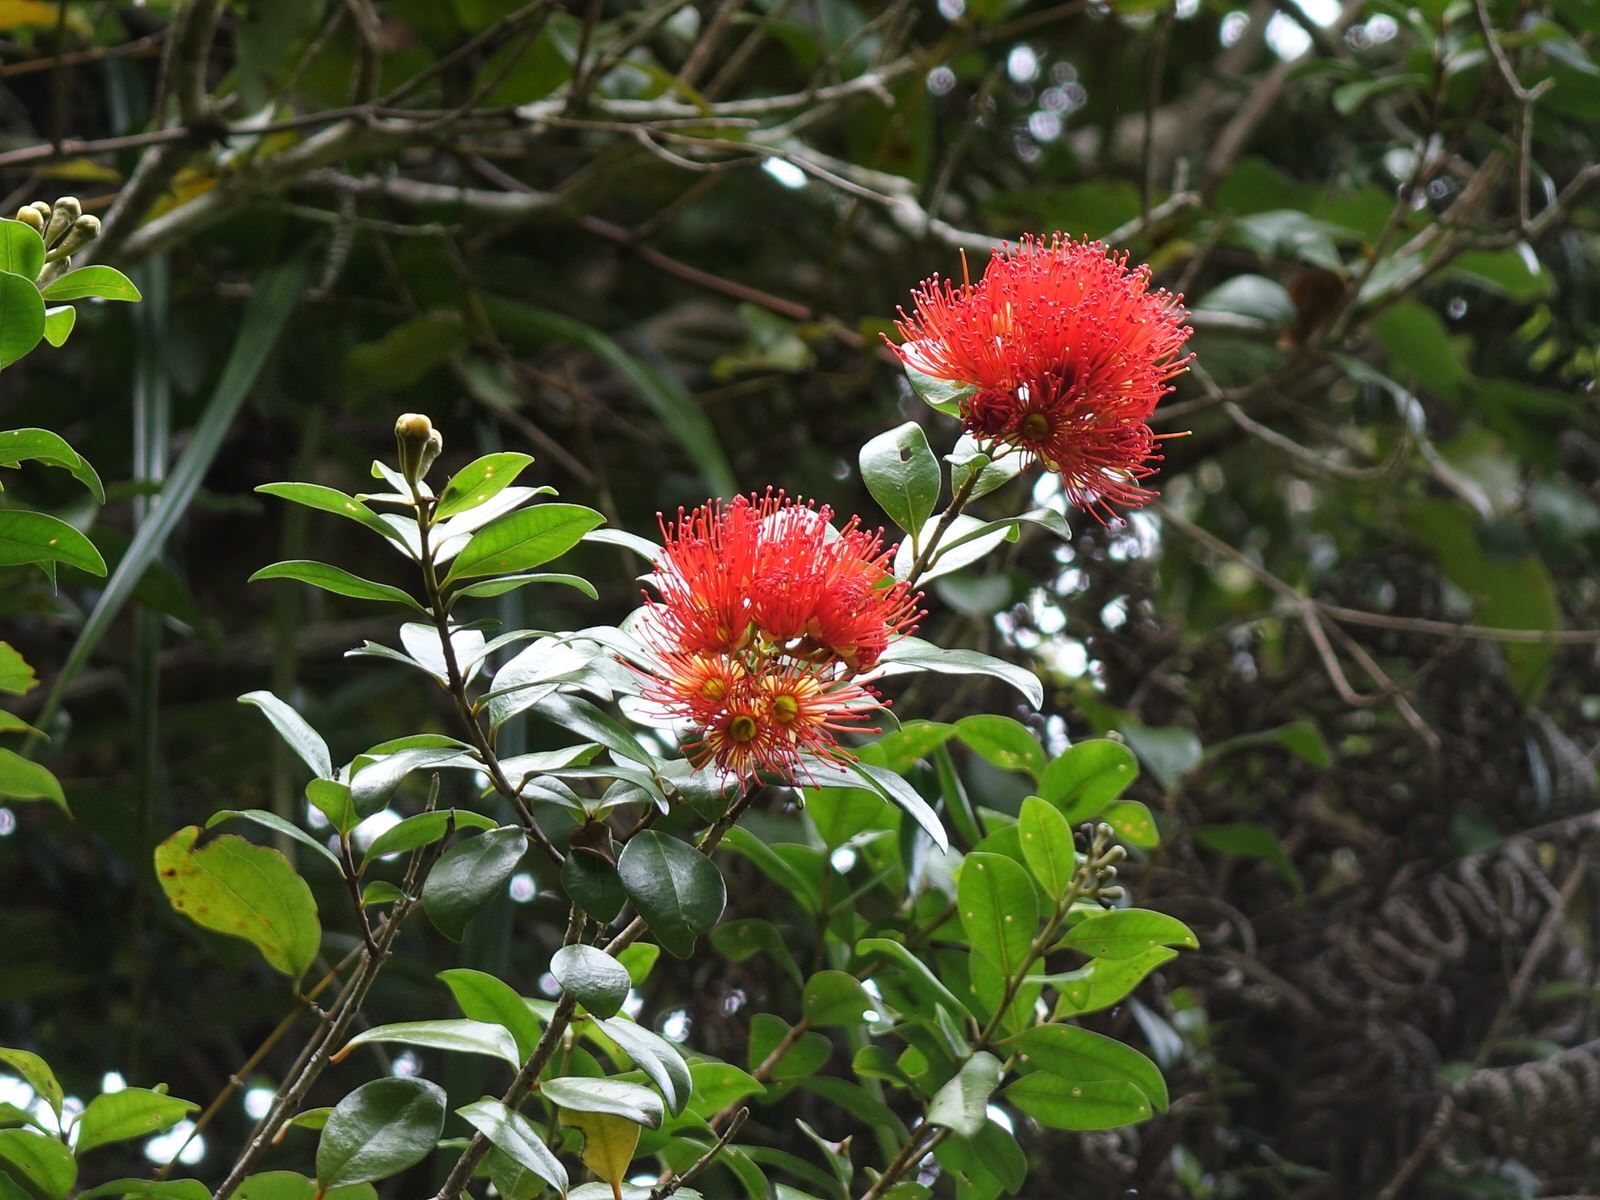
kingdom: Plantae
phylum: Tracheophyta
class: Magnoliopsida
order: Myrtales
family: Myrtaceae
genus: Metrosideros
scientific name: Metrosideros fulgens
